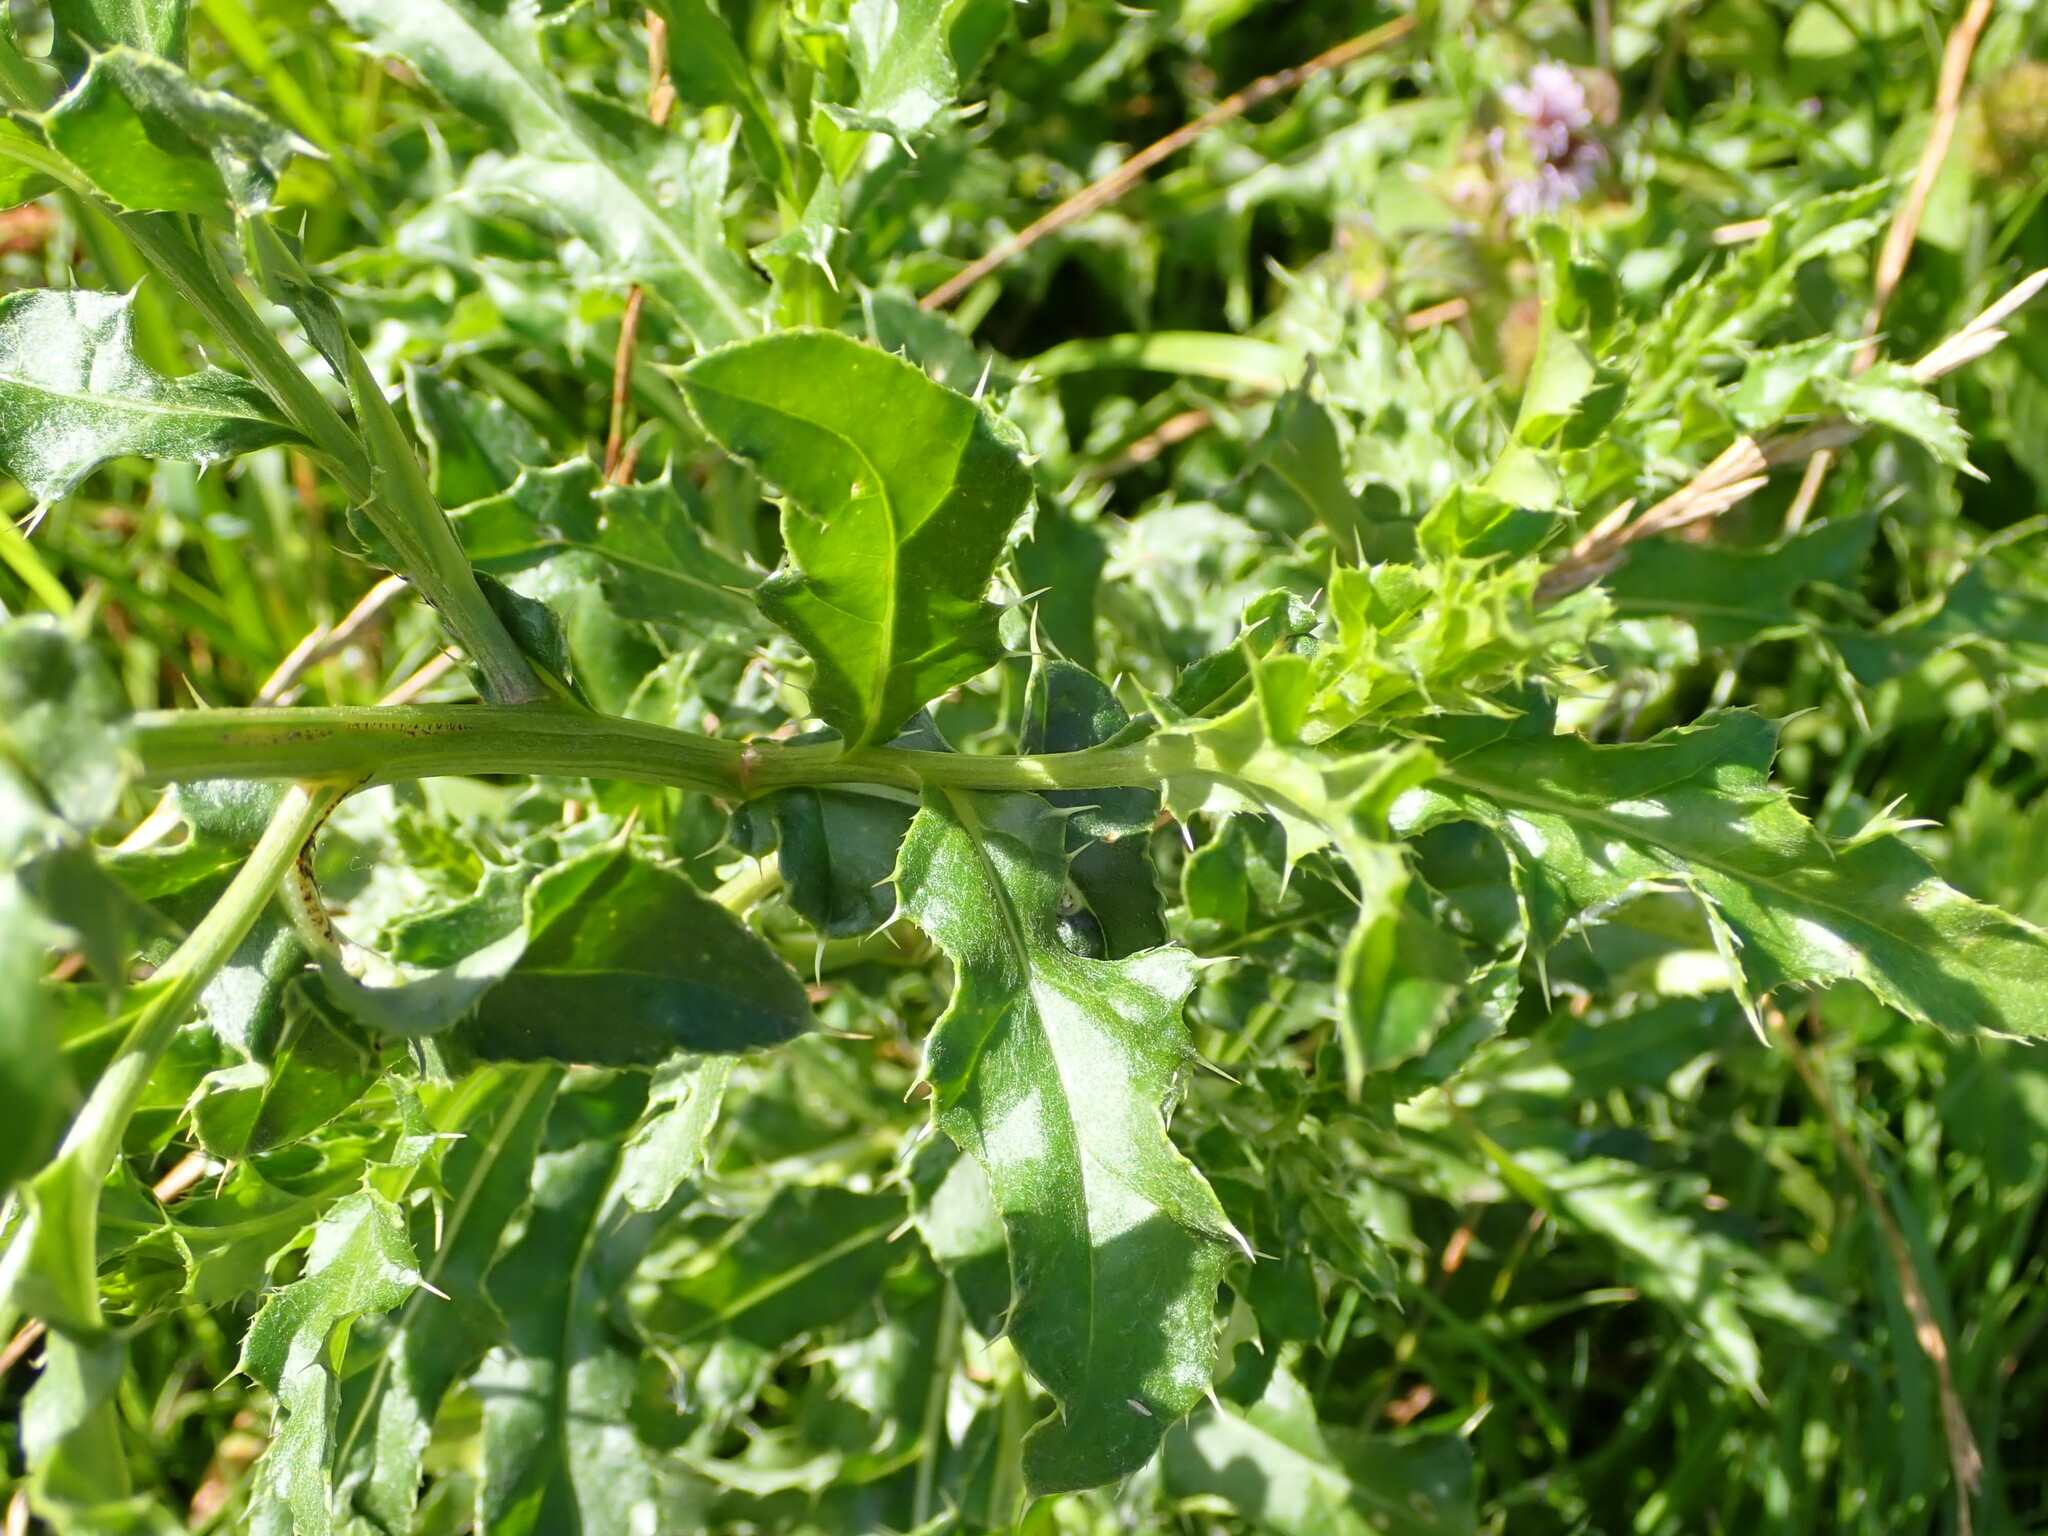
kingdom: Plantae
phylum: Tracheophyta
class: Magnoliopsida
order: Asterales
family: Asteraceae
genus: Cirsium
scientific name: Cirsium arvense
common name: Creeping thistle
